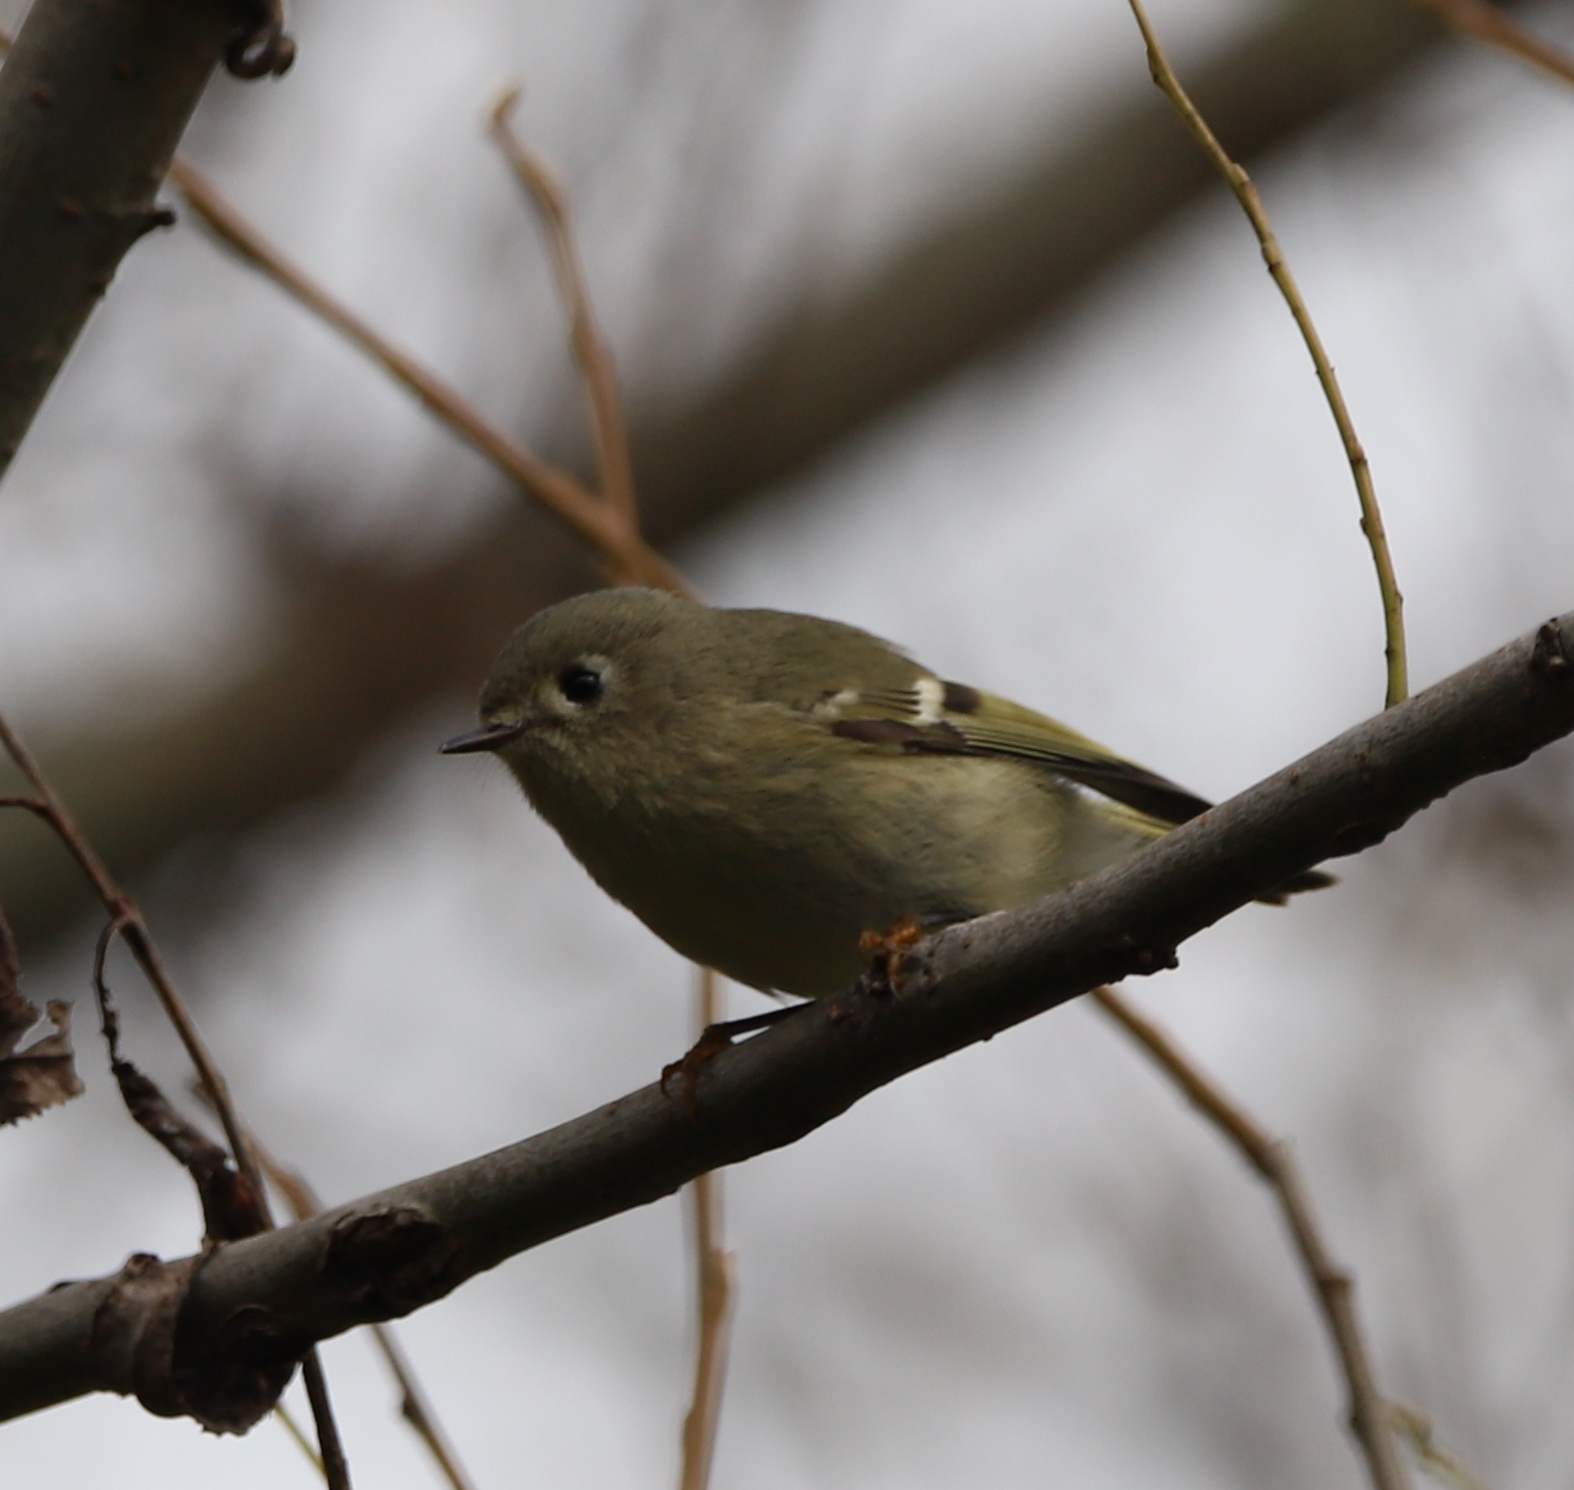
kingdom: Animalia
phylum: Chordata
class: Aves
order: Passeriformes
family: Regulidae
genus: Regulus
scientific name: Regulus calendula
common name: Ruby-crowned kinglet
